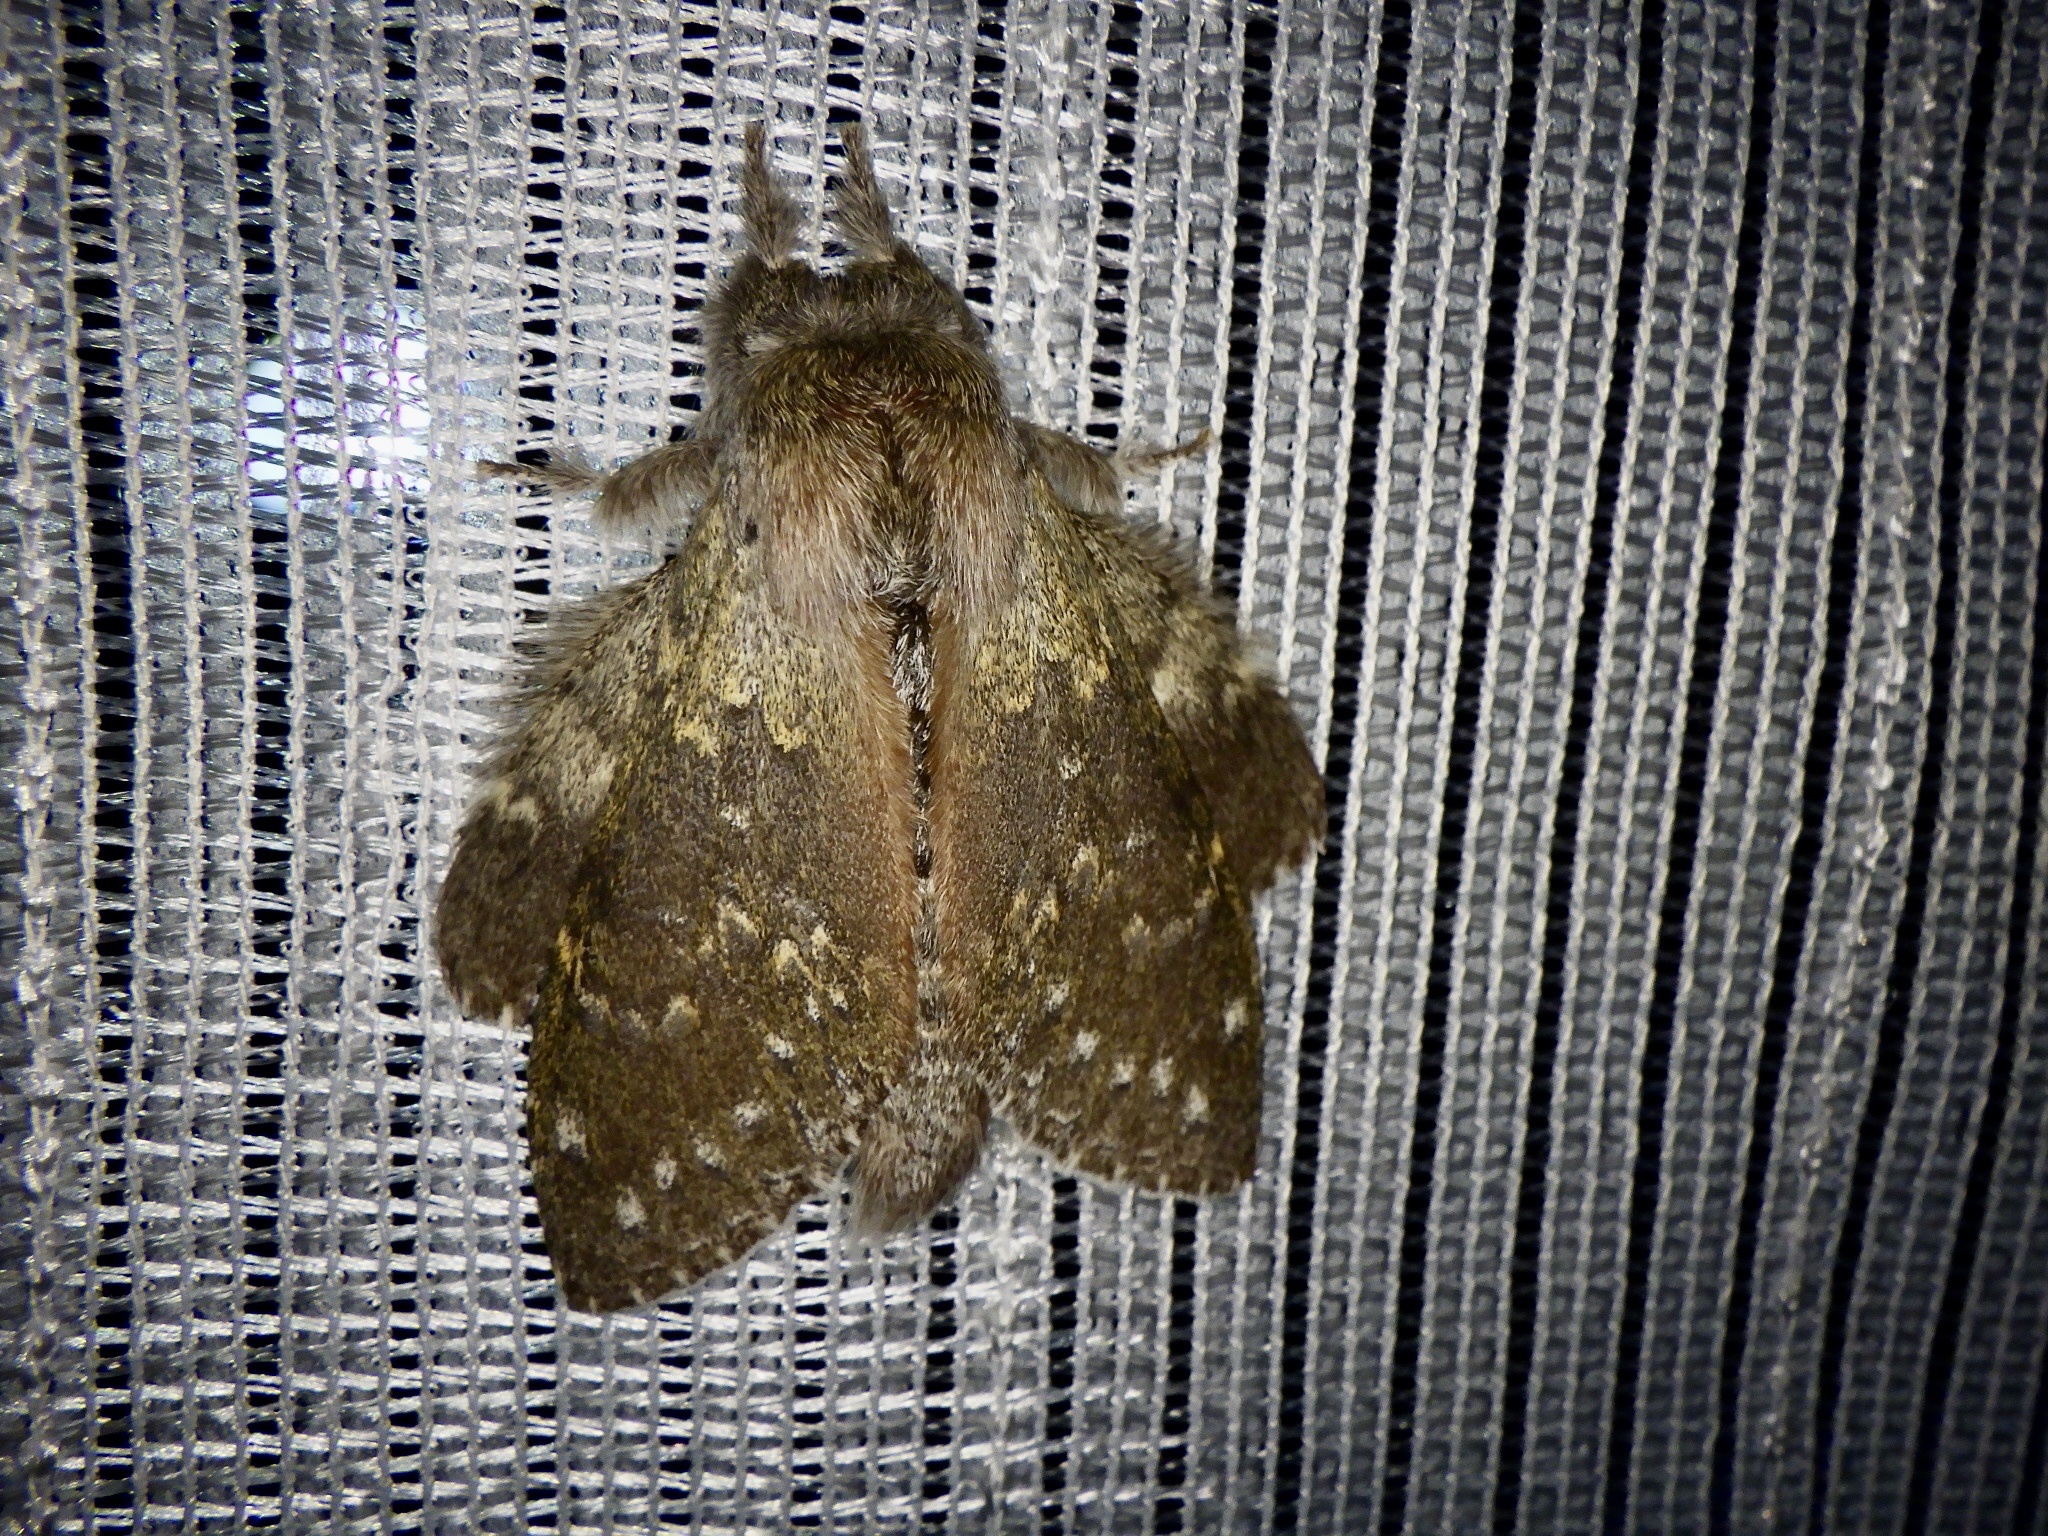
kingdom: Animalia
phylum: Arthropoda
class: Insecta
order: Lepidoptera
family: Notodontidae
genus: Stauropus
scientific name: Stauropus fagi
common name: Lobster moth
